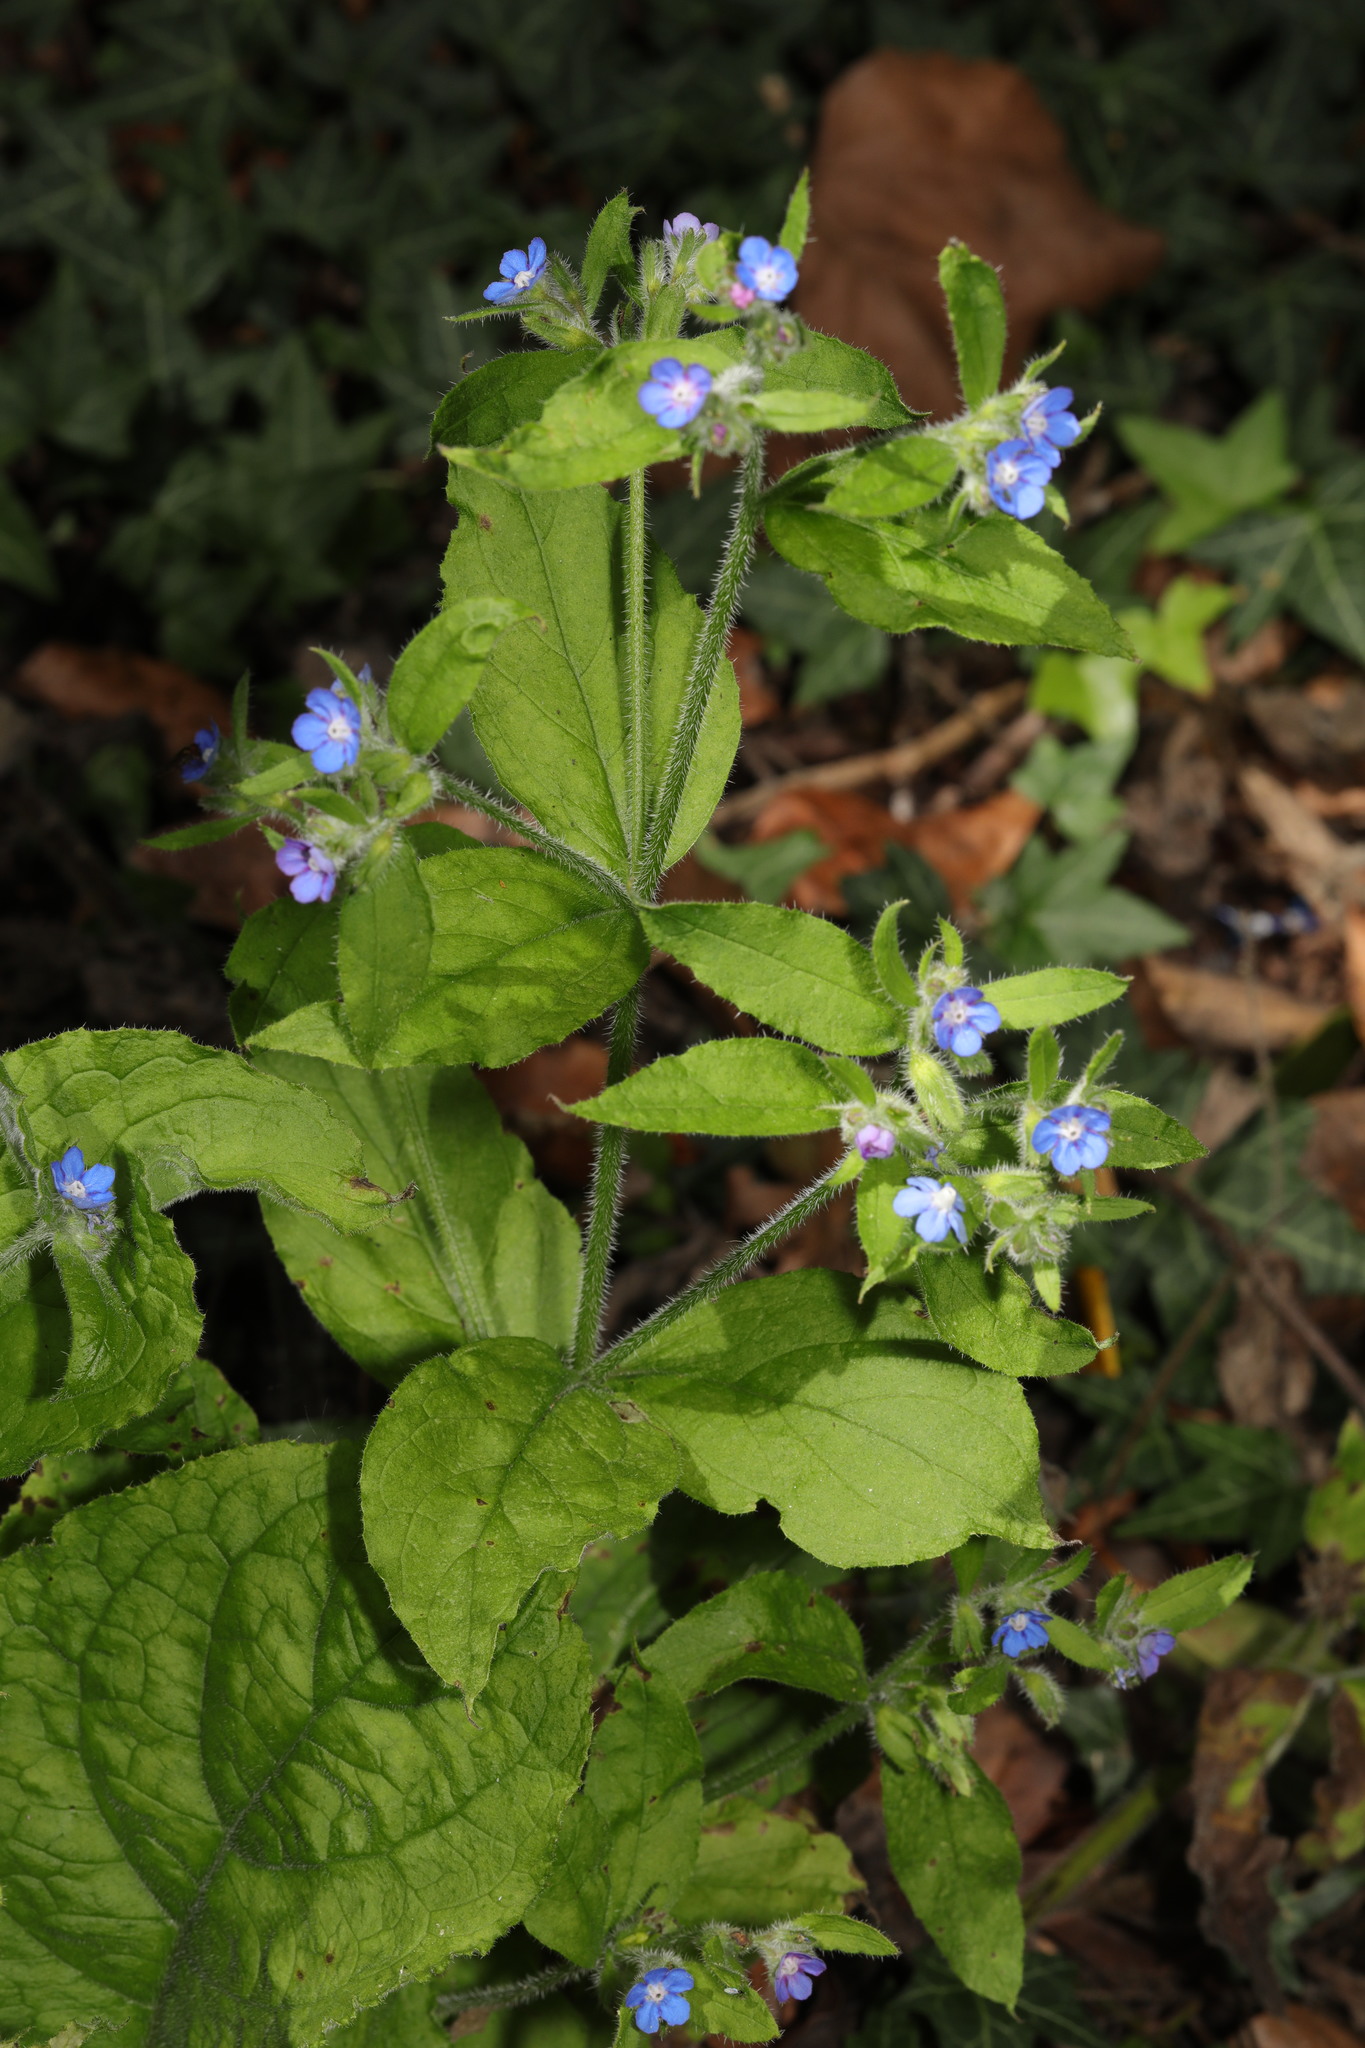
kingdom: Plantae
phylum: Tracheophyta
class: Magnoliopsida
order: Boraginales
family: Boraginaceae
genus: Pentaglottis
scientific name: Pentaglottis sempervirens
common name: Green alkanet
